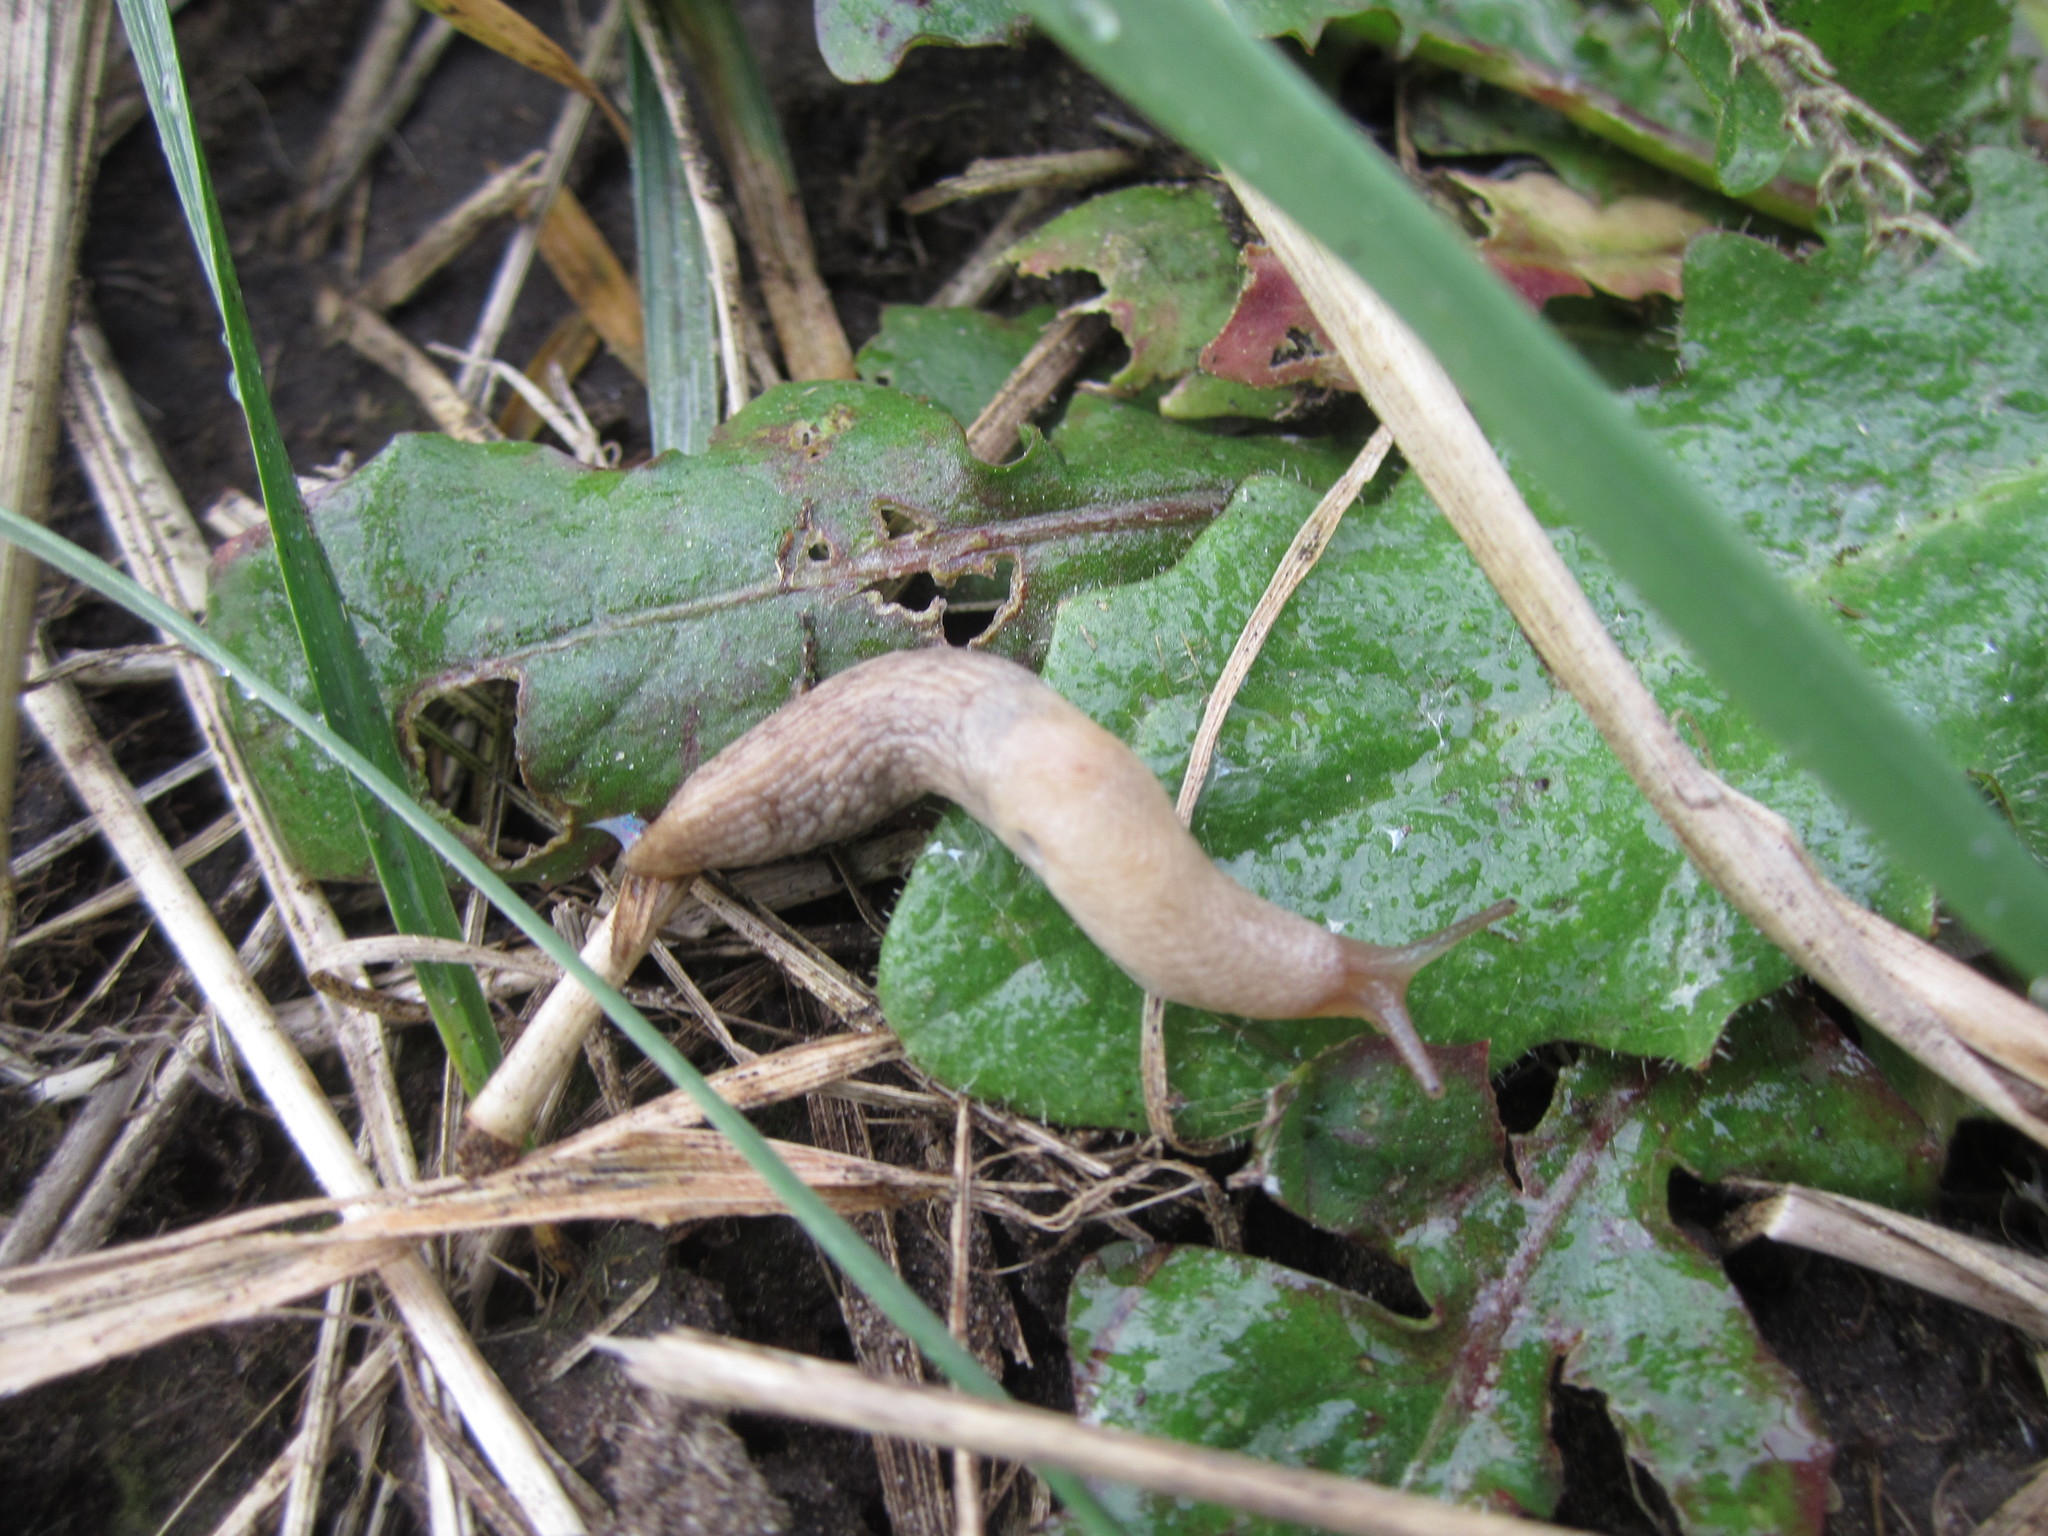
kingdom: Animalia
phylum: Mollusca
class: Gastropoda
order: Stylommatophora
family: Agriolimacidae
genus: Deroceras
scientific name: Deroceras reticulatum
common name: Gray field slug
